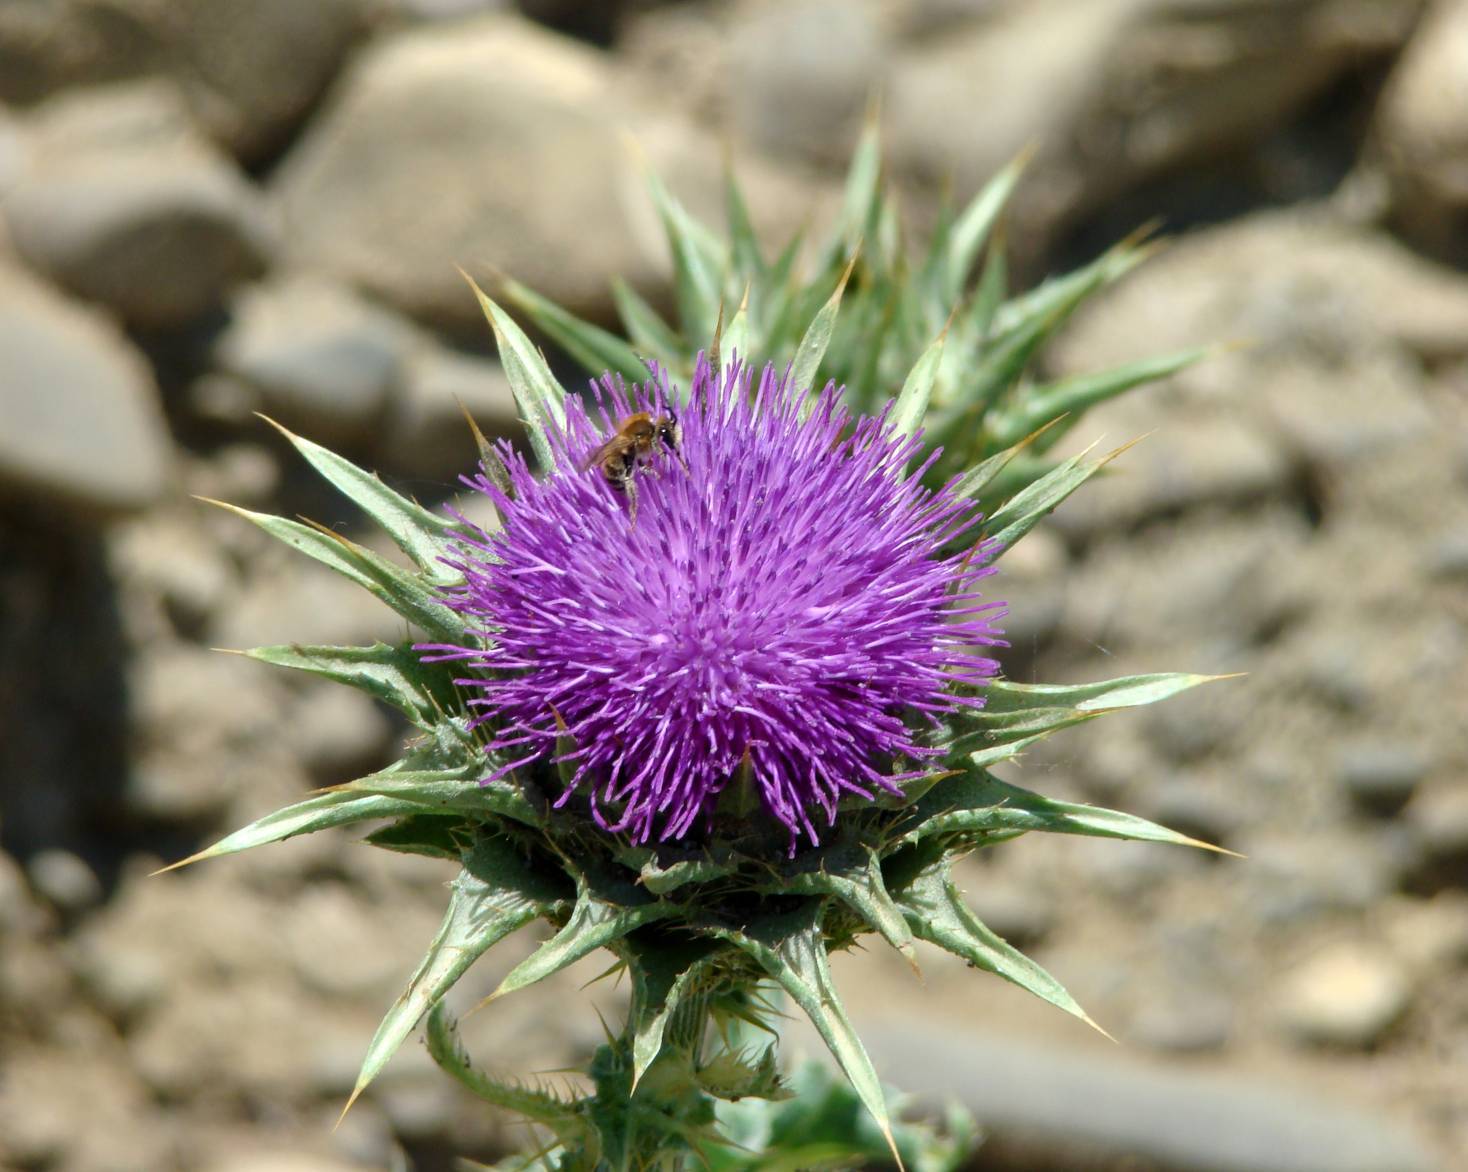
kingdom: Plantae
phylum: Tracheophyta
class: Magnoliopsida
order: Asterales
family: Asteraceae
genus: Silybum
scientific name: Silybum marianum
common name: Milk thistle
